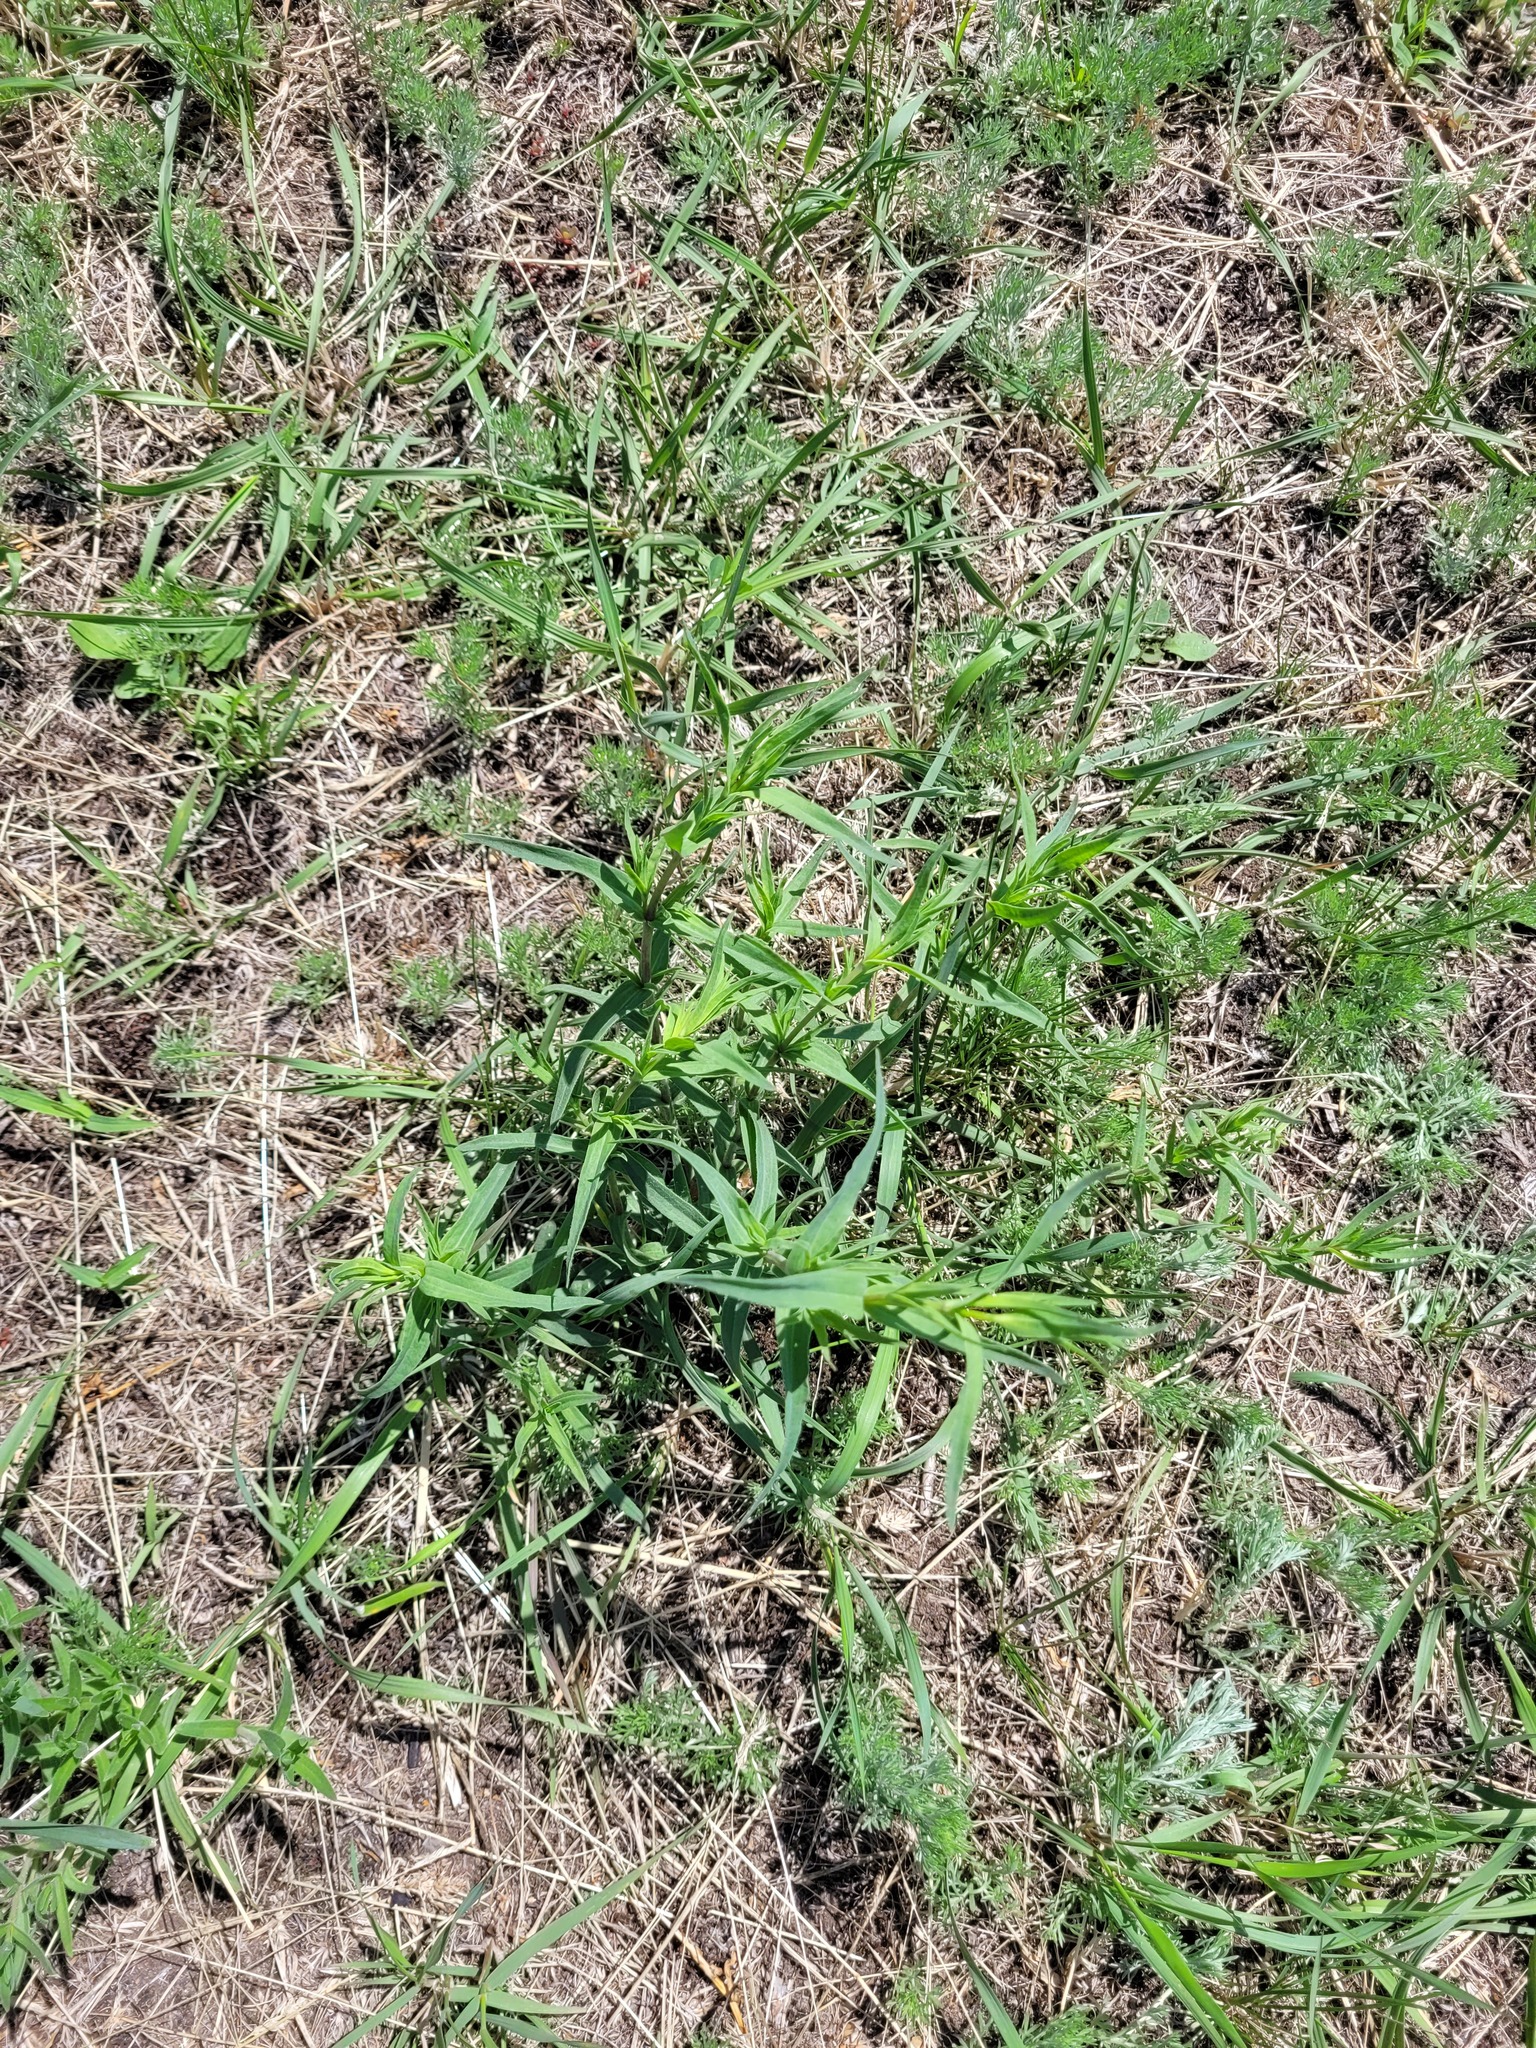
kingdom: Plantae
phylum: Tracheophyta
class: Magnoliopsida
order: Caryophyllales
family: Caryophyllaceae
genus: Gypsophila
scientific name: Gypsophila paniculata
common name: Baby's-breath
